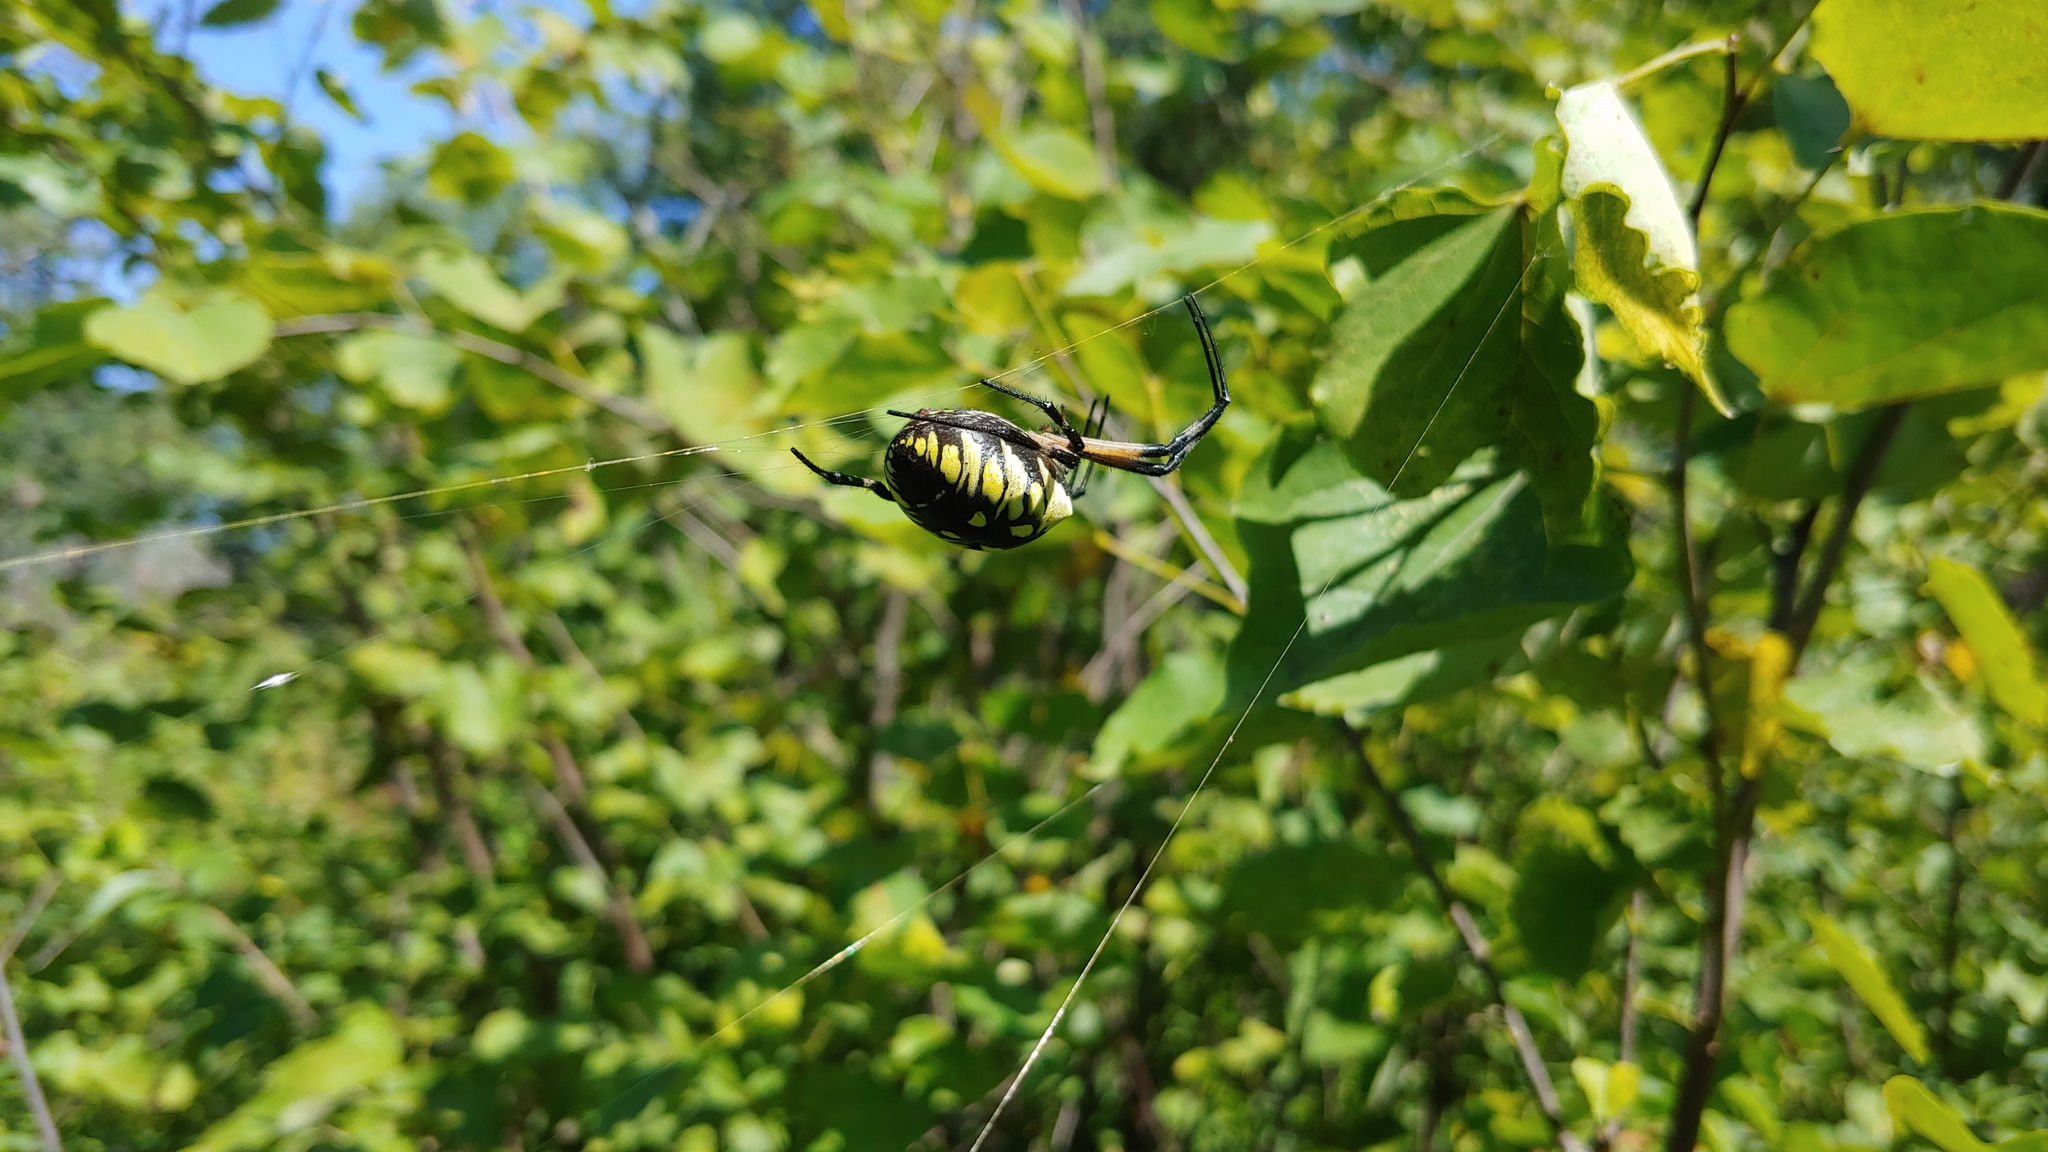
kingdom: Animalia
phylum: Arthropoda
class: Arachnida
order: Araneae
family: Araneidae
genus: Argiope
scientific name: Argiope aurantia
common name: Orb weavers
